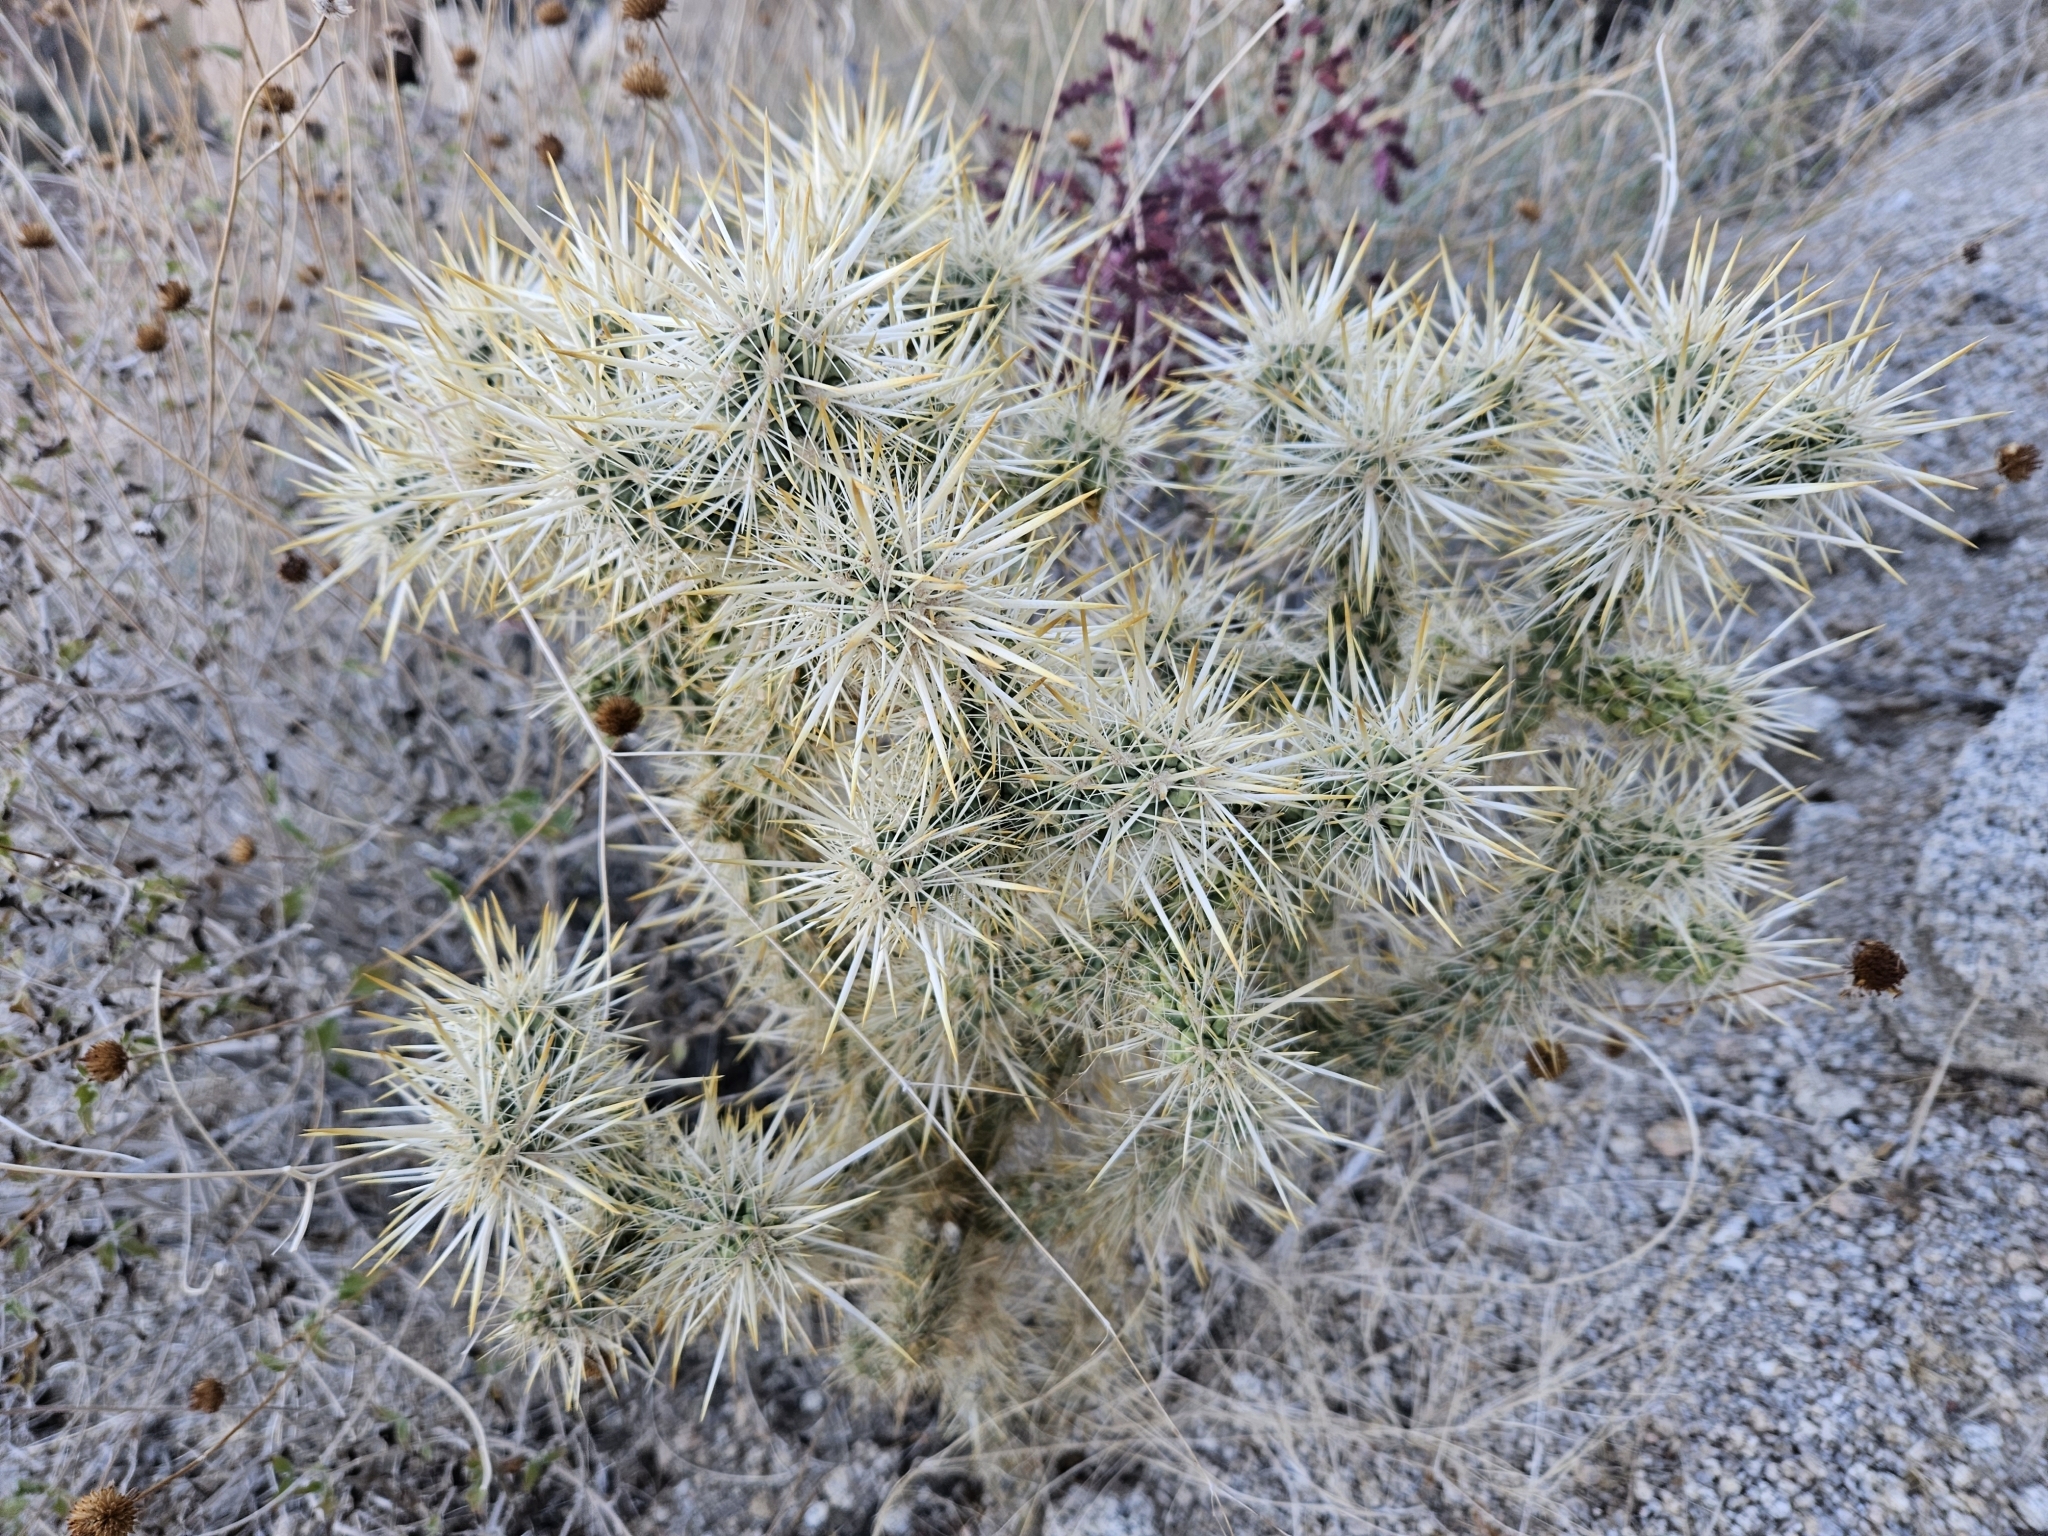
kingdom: Plantae
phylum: Tracheophyta
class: Magnoliopsida
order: Caryophyllales
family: Cactaceae
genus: Cylindropuntia
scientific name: Cylindropuntia echinocarpa
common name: Ground cholla
